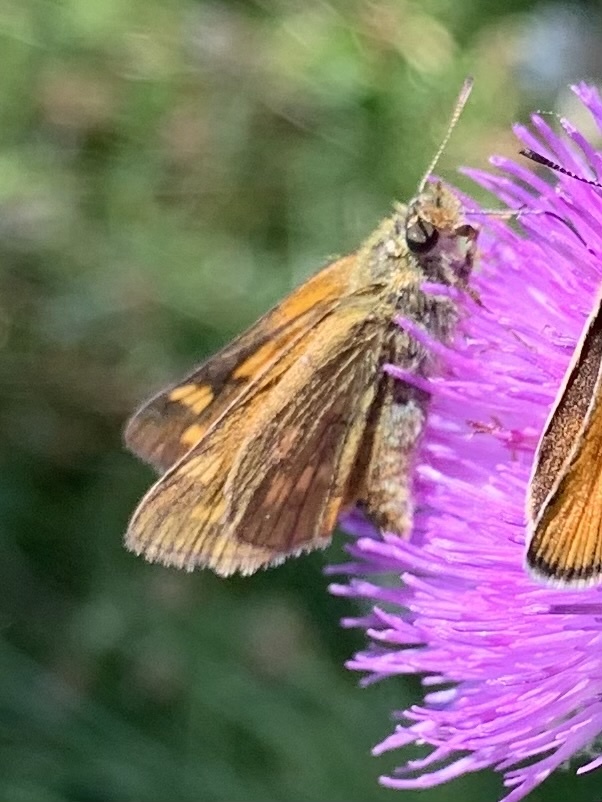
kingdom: Animalia
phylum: Arthropoda
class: Insecta
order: Lepidoptera
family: Hesperiidae
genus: Ochlodes
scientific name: Ochlodes venata
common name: Large skipper
